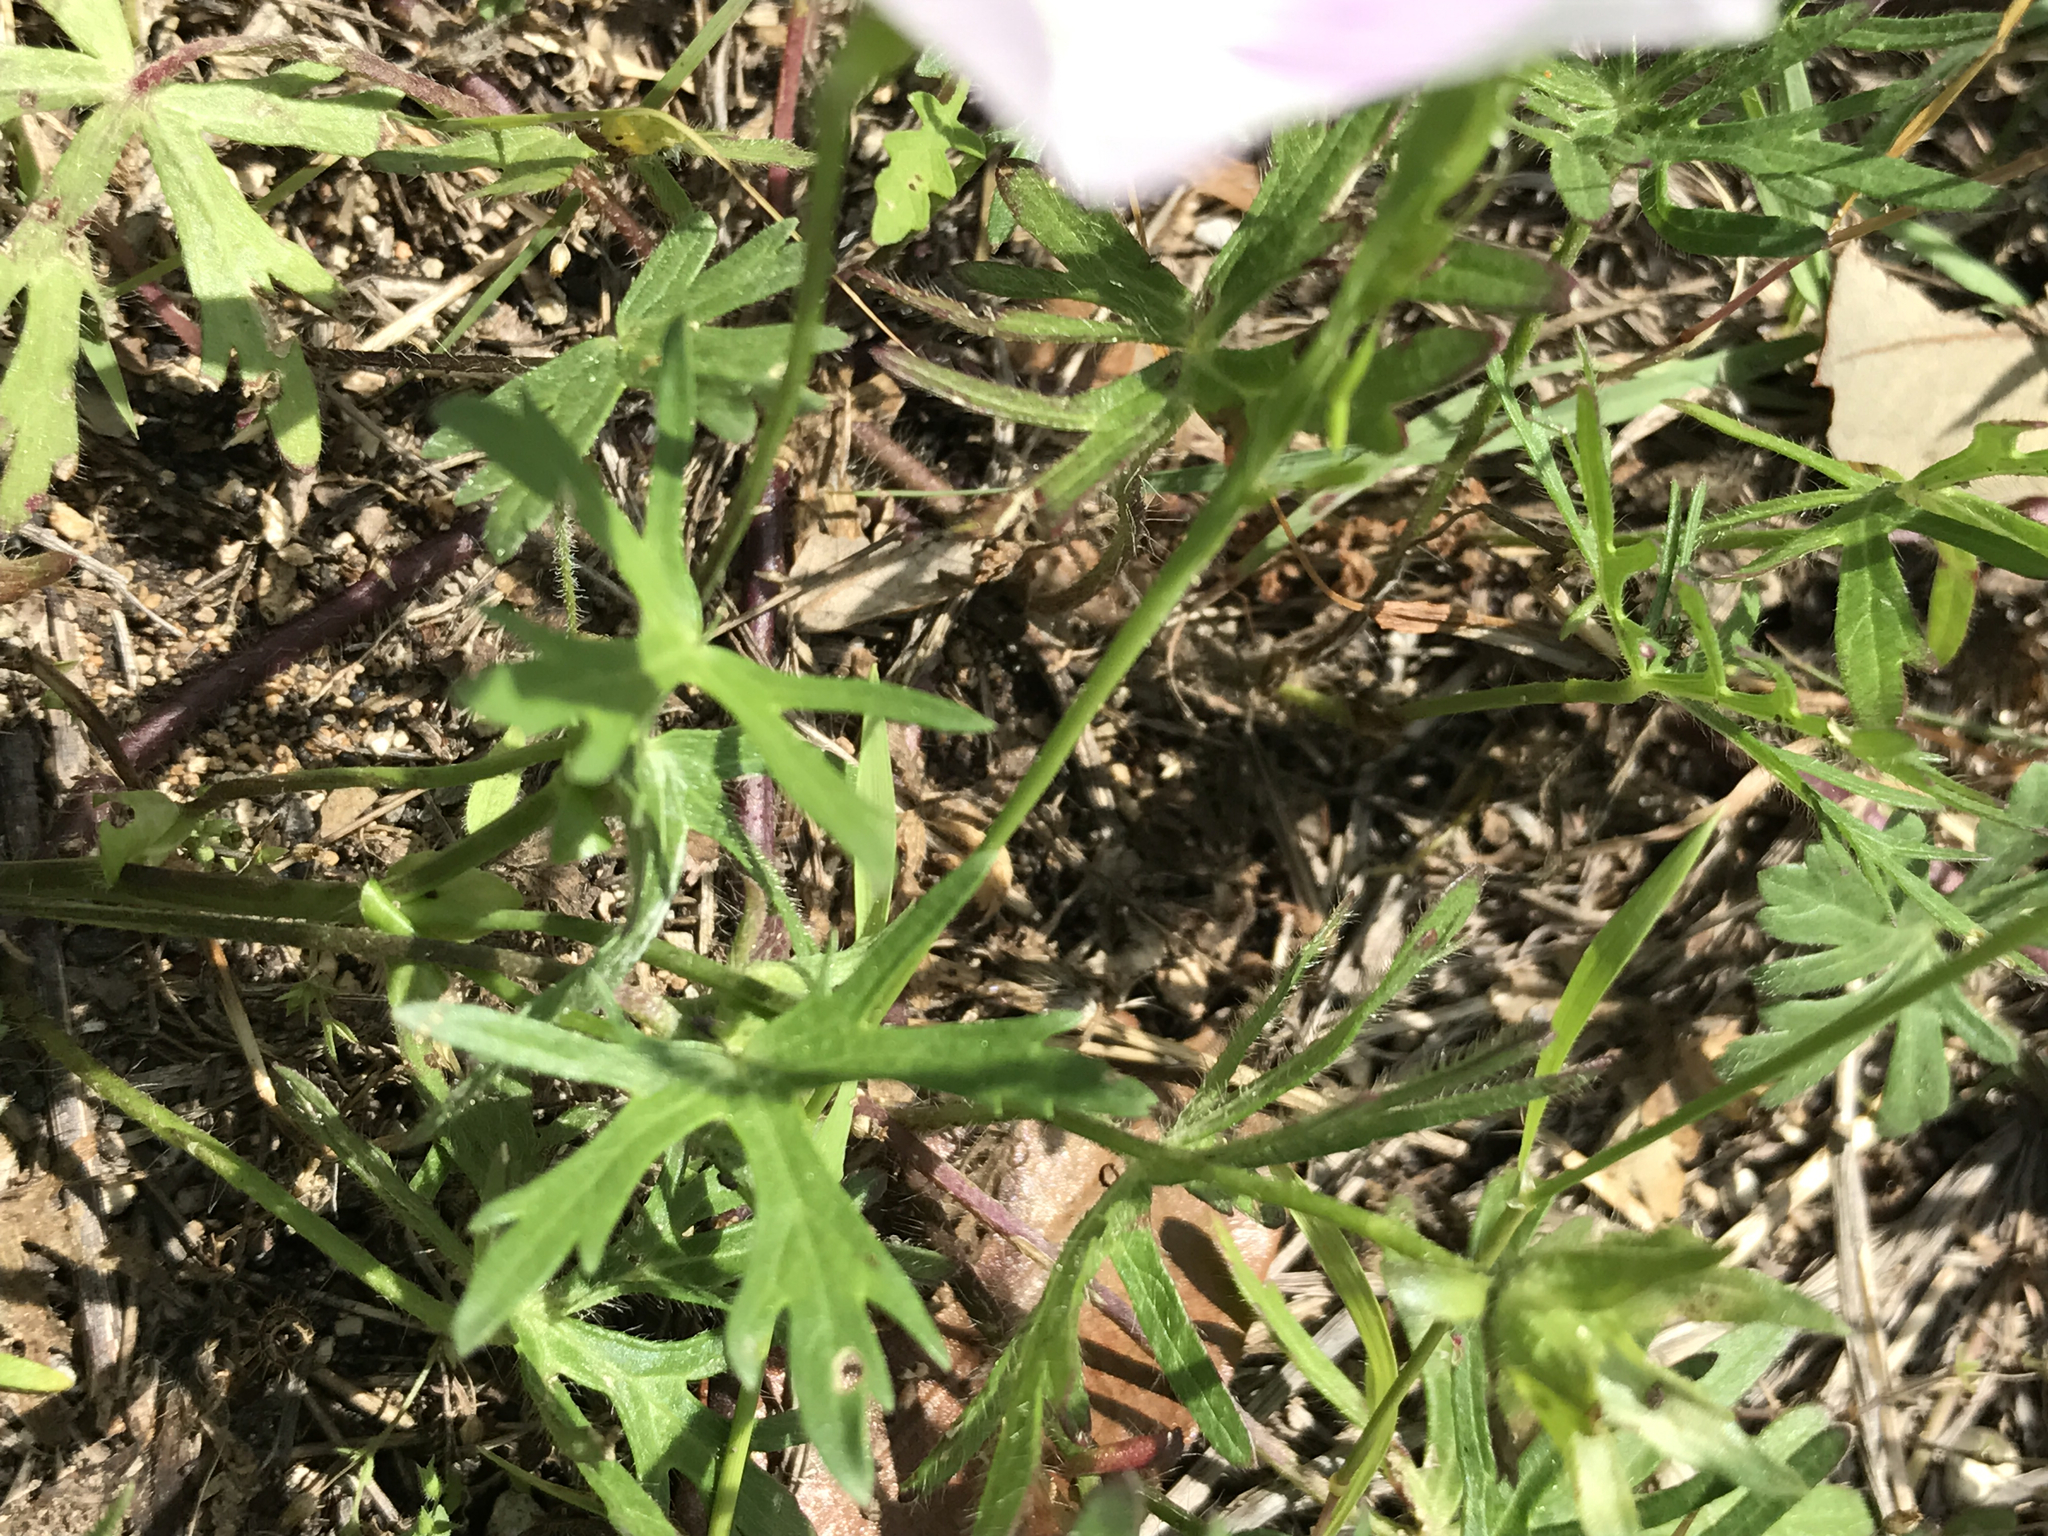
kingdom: Plantae
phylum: Tracheophyta
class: Magnoliopsida
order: Malvales
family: Malvaceae
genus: Callirhoe
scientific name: Callirhoe involucrata
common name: Purple poppy-mallow
